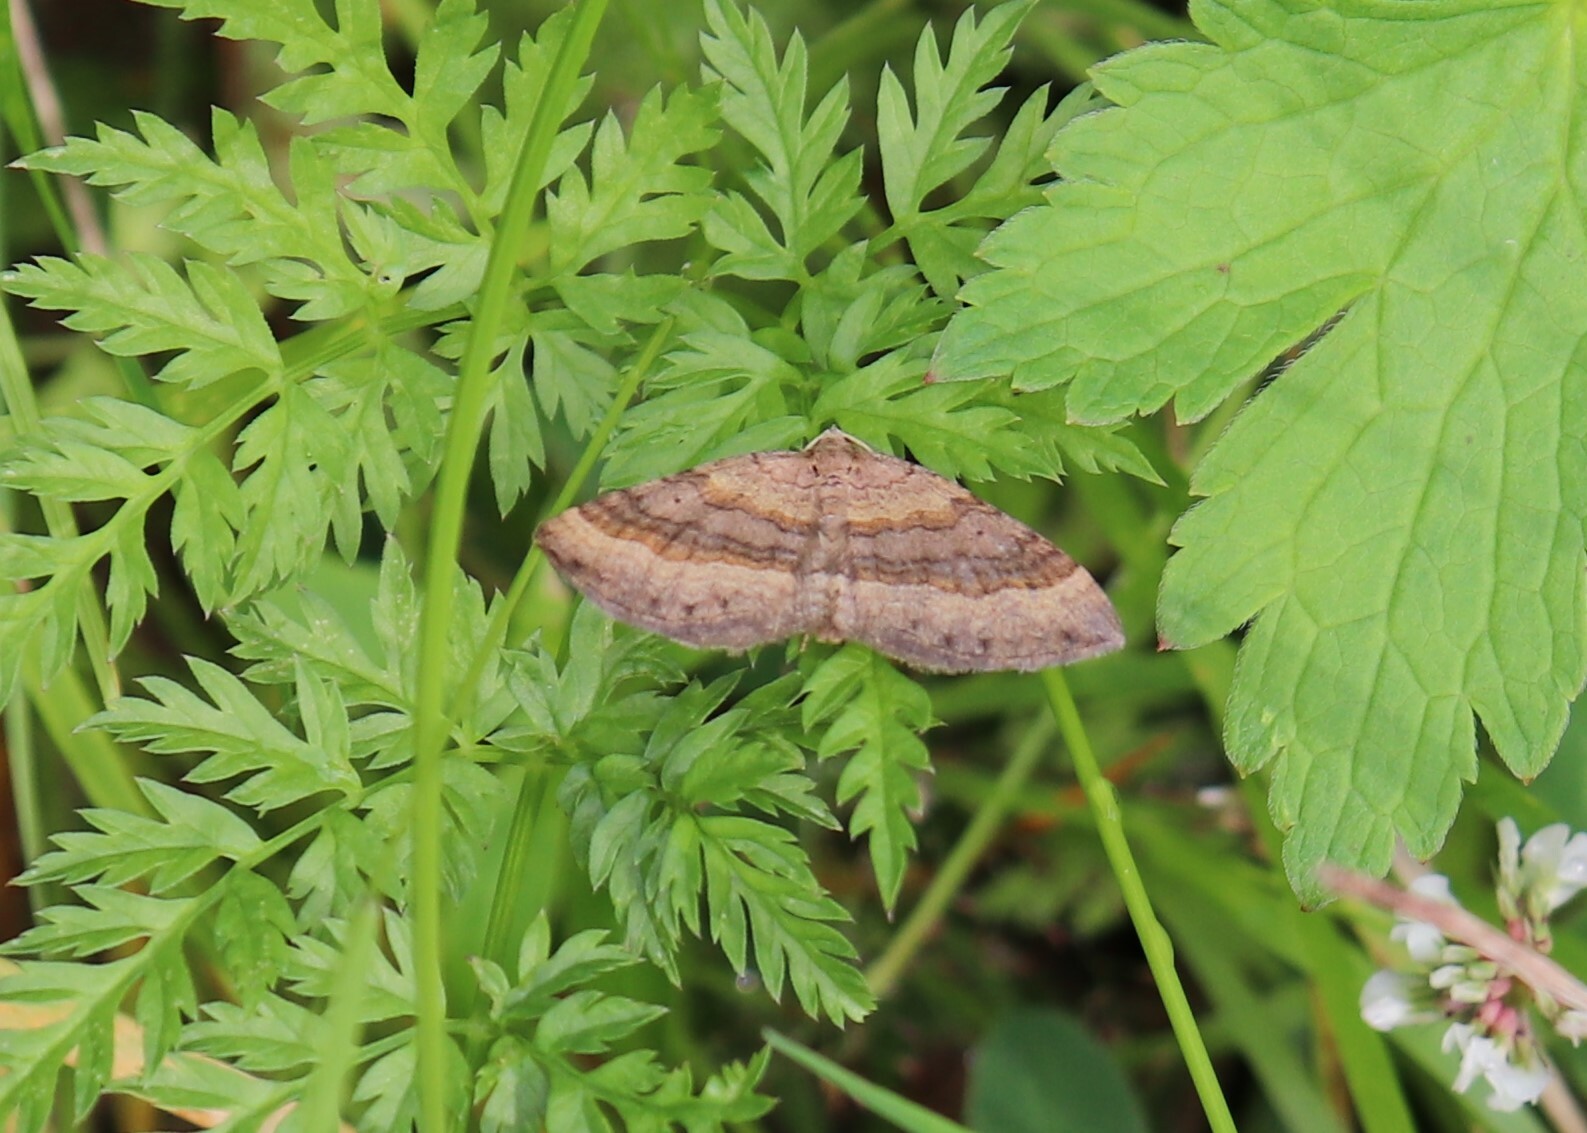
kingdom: Animalia
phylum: Arthropoda
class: Insecta
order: Lepidoptera
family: Geometridae
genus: Scotopteryx
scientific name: Scotopteryx chenopodiata
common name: Shaded broad-bar
